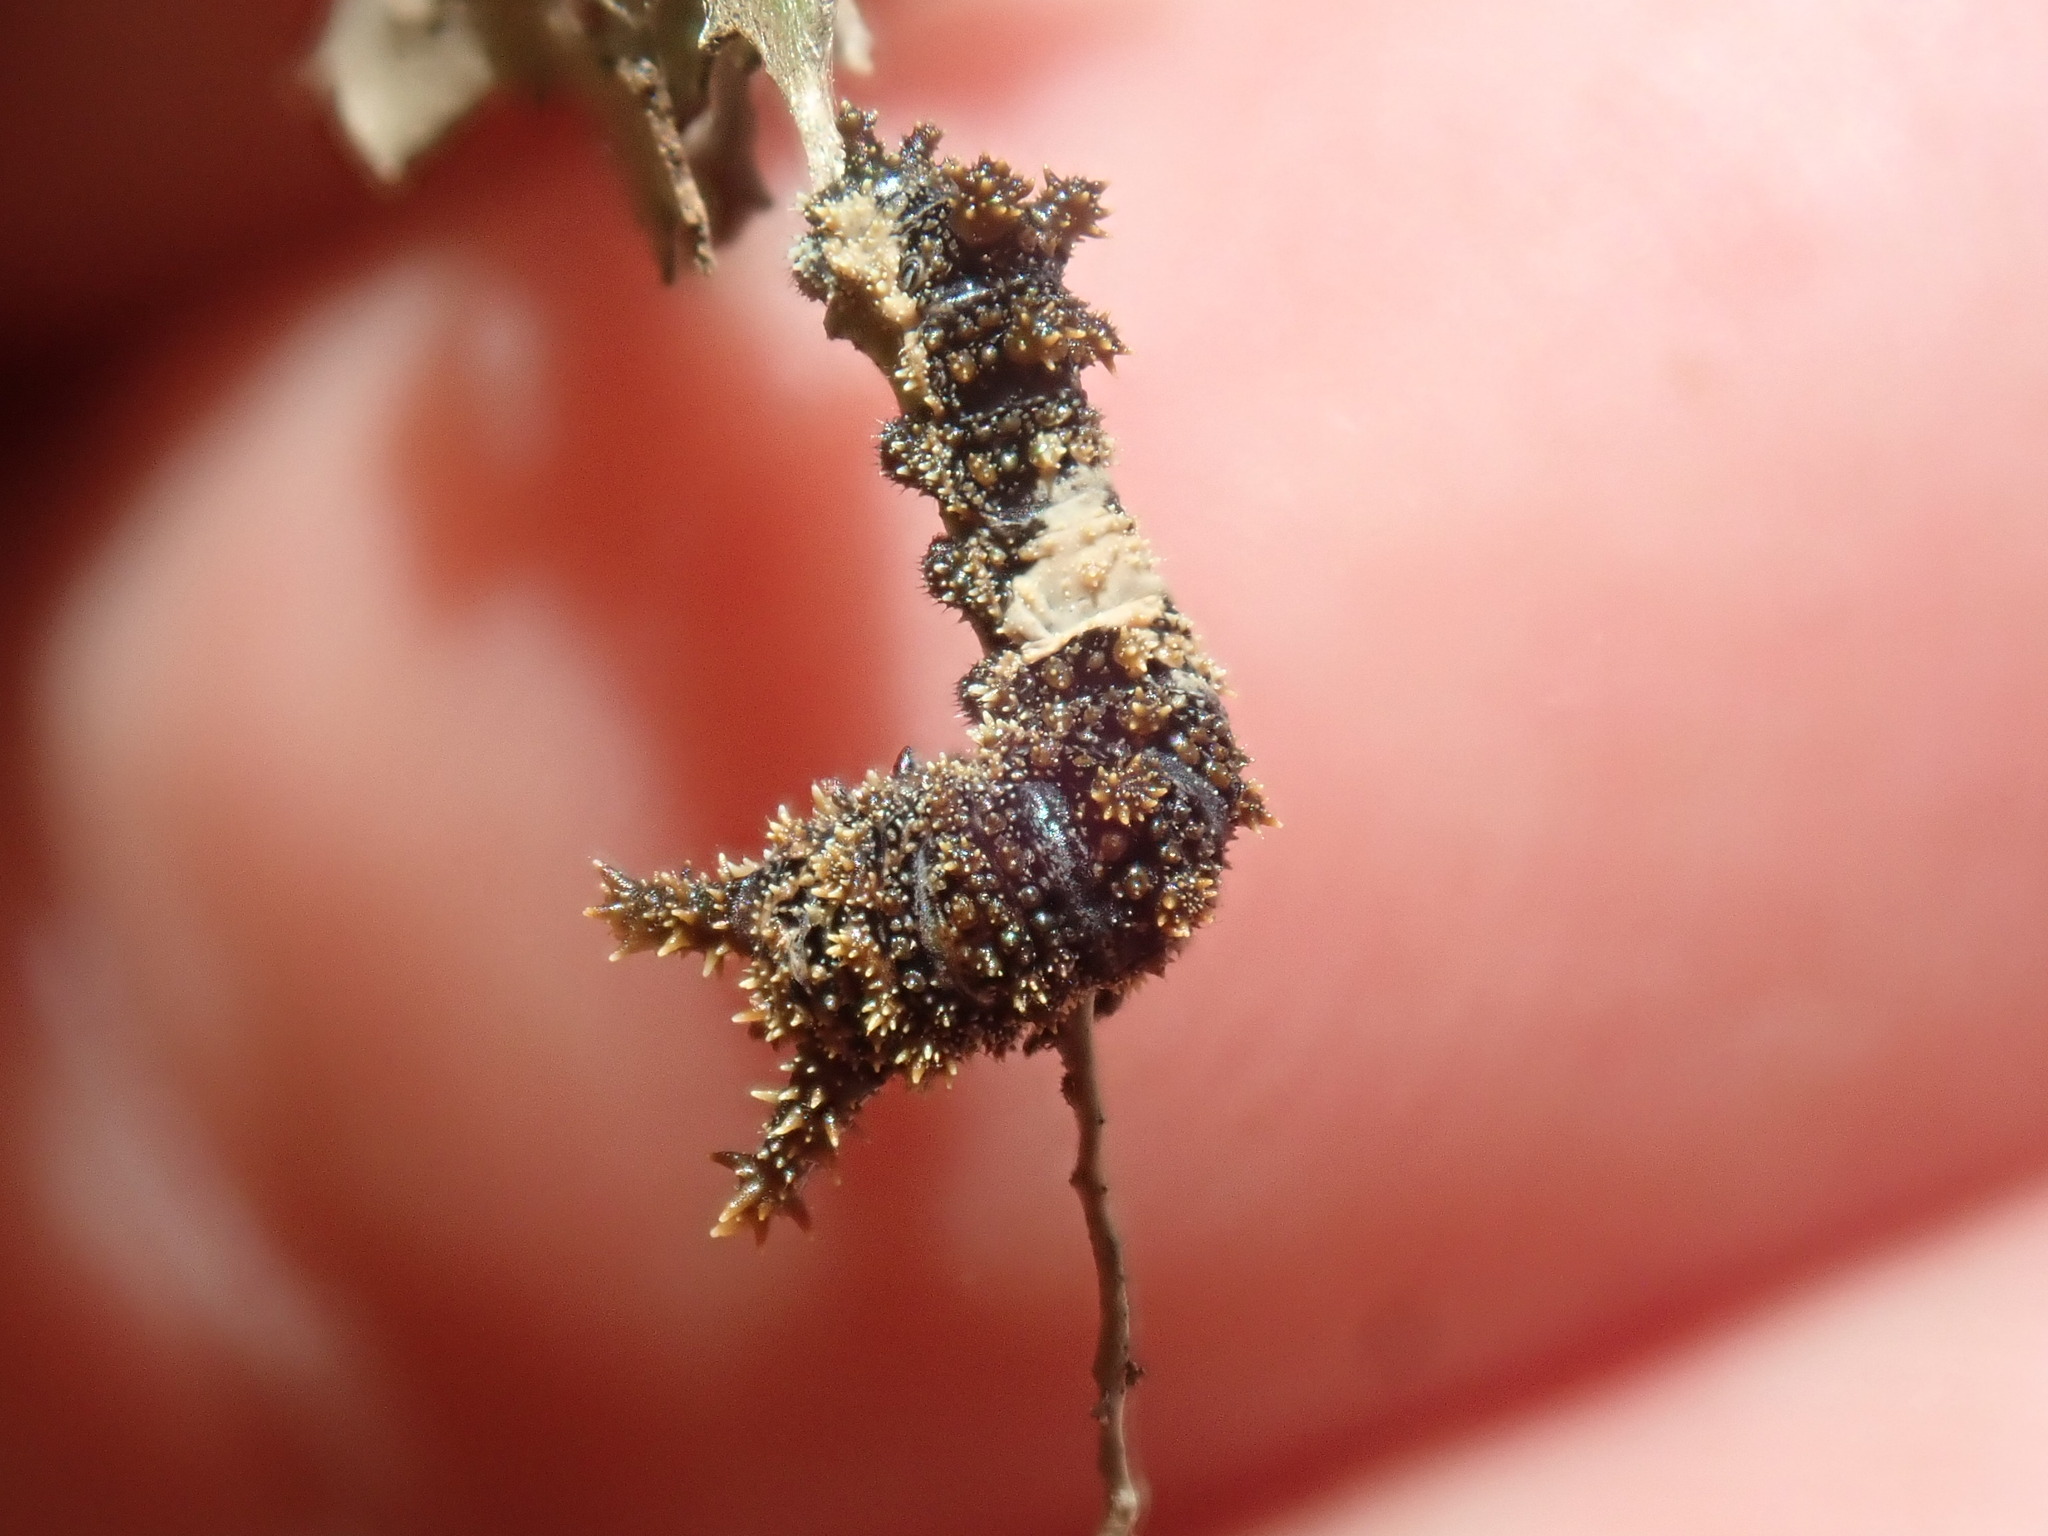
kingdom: Animalia
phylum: Arthropoda
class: Insecta
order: Lepidoptera
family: Nymphalidae
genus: Limenitis
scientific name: Limenitis archippus
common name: Viceroy
